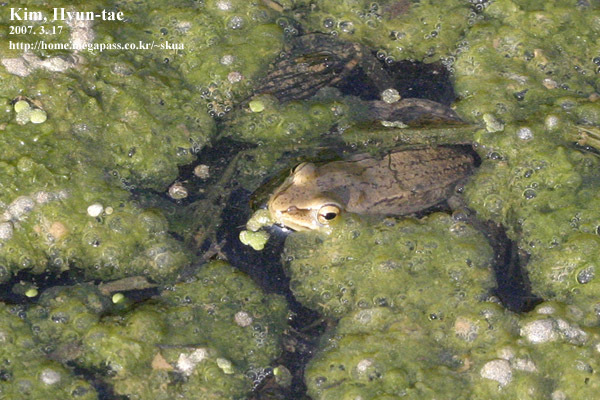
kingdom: Animalia
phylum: Chordata
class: Amphibia
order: Anura
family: Ranidae
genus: Rana
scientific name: Rana coreana
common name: Korean brown frog
